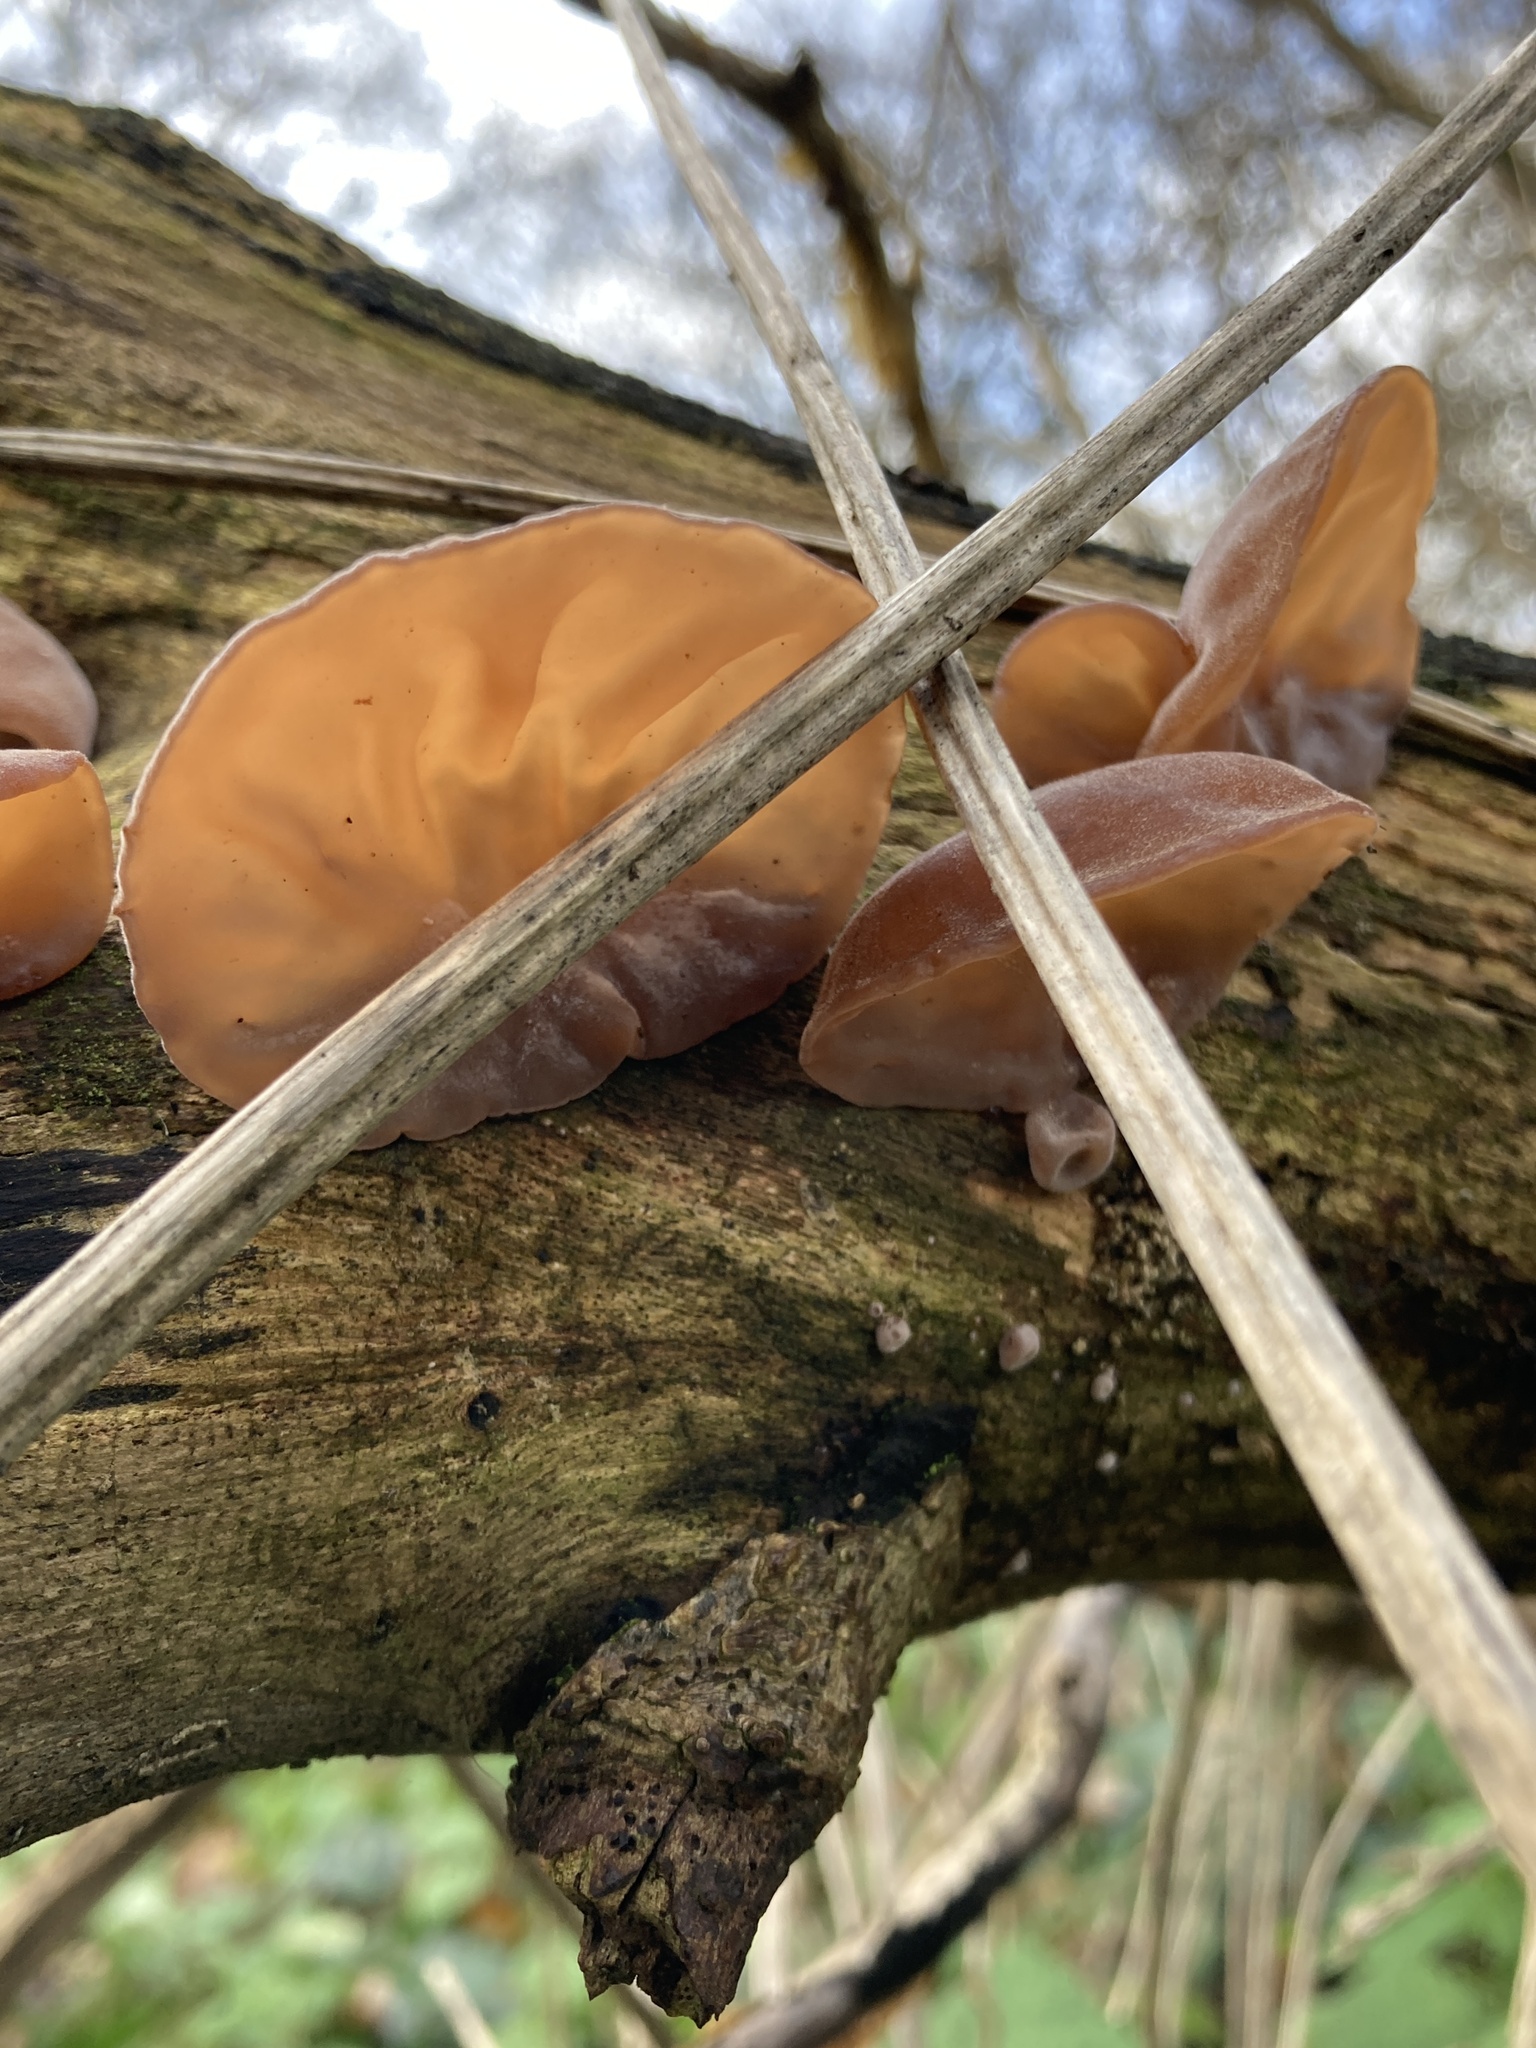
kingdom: Fungi
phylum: Basidiomycota
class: Agaricomycetes
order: Auriculariales
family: Auriculariaceae
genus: Auricularia
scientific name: Auricularia auricula-judae
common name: Jelly ear
